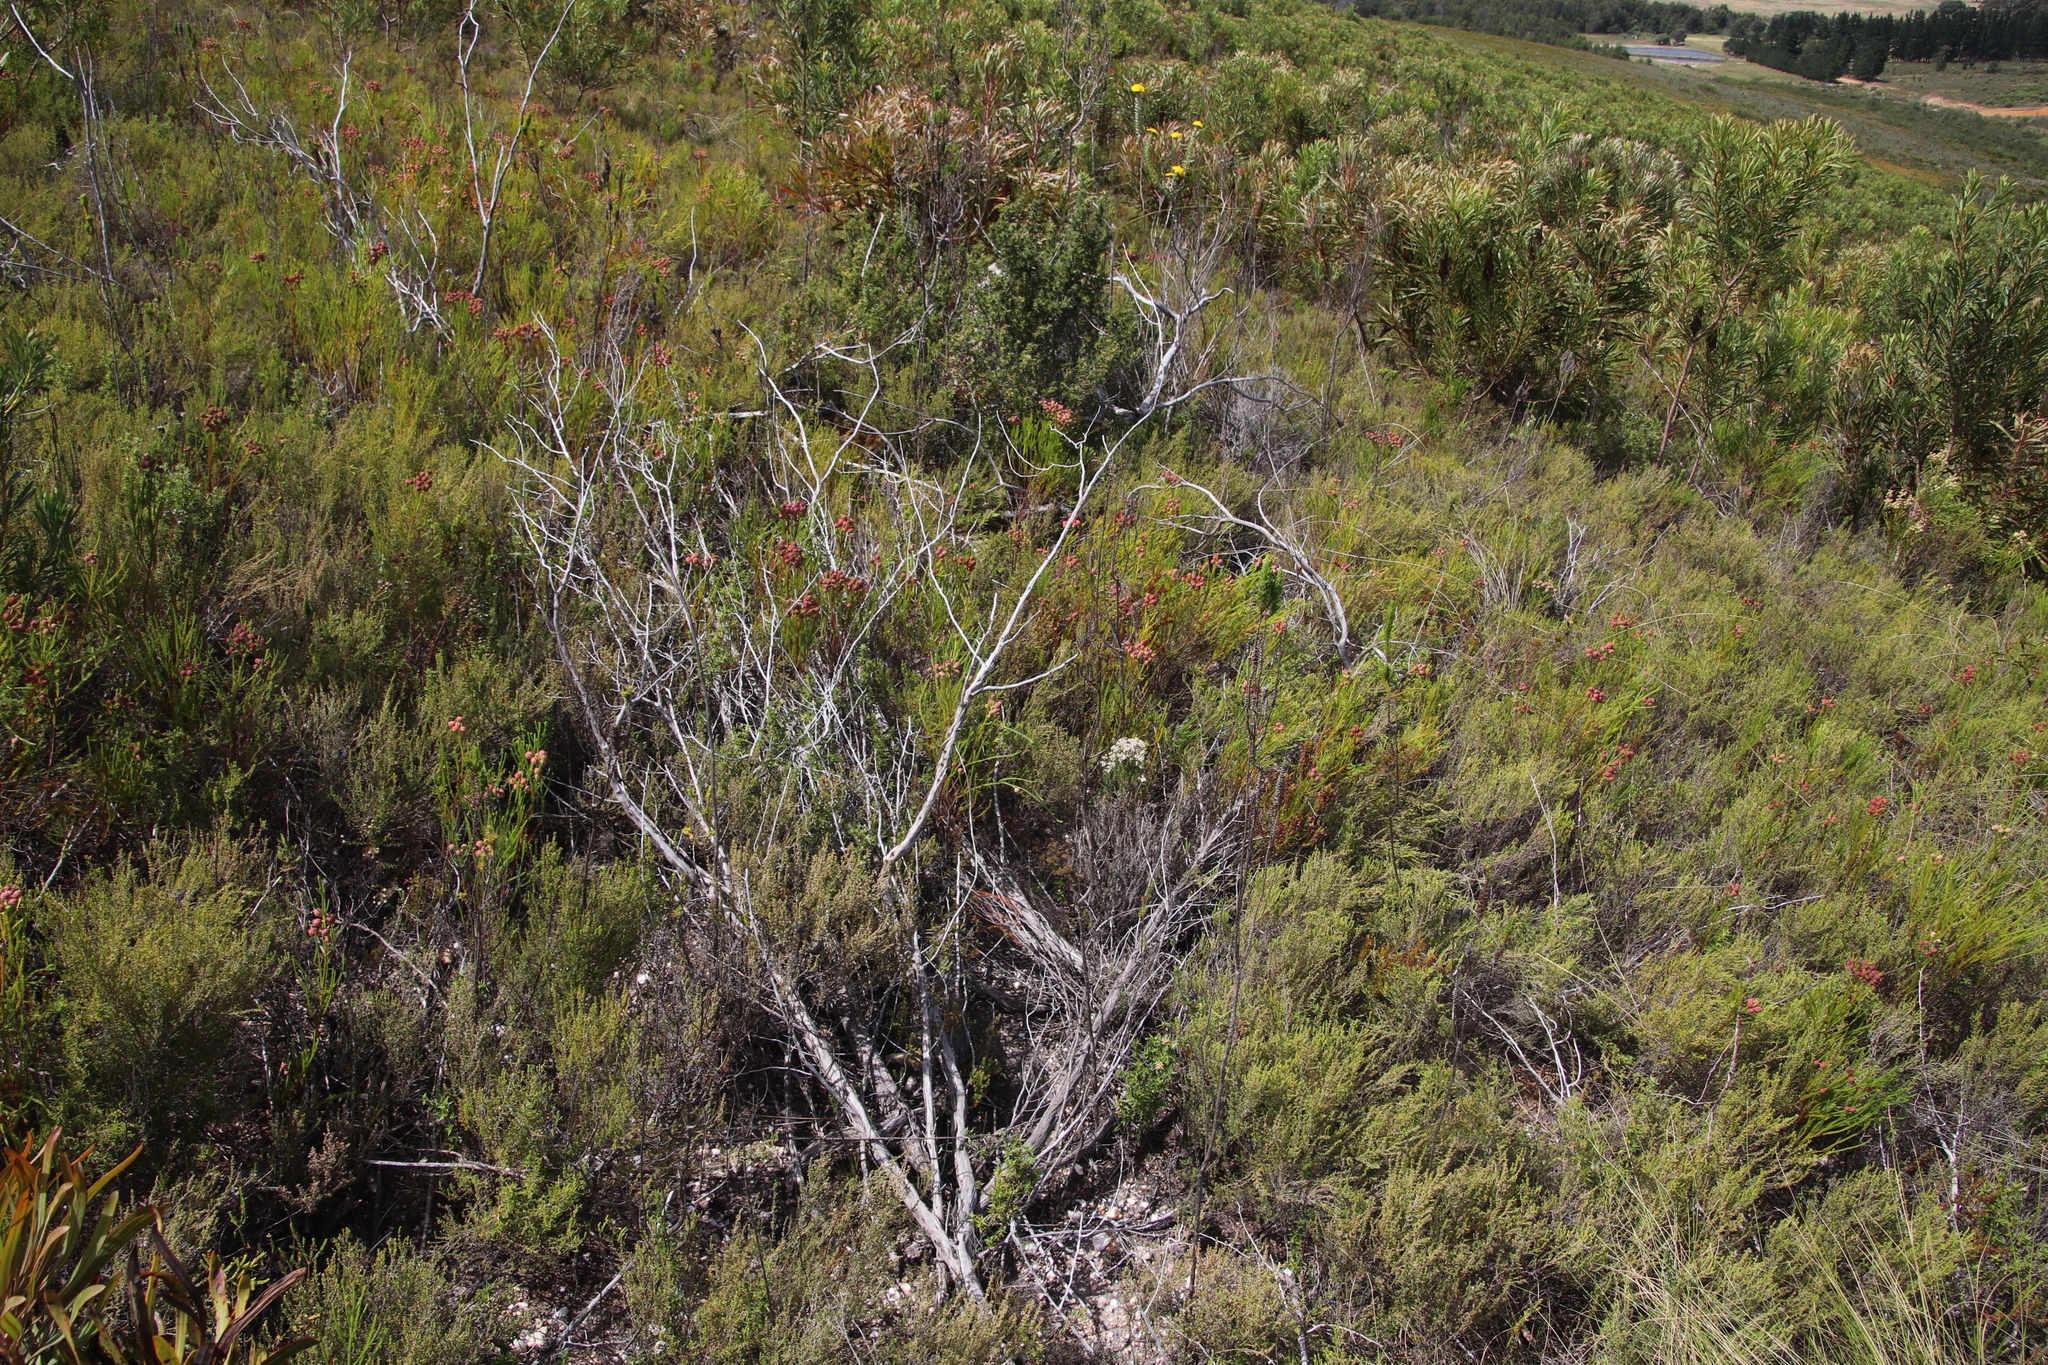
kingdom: Plantae
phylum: Tracheophyta
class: Magnoliopsida
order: Asterales
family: Asteraceae
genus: Athanasia
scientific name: Athanasia trifurcata
